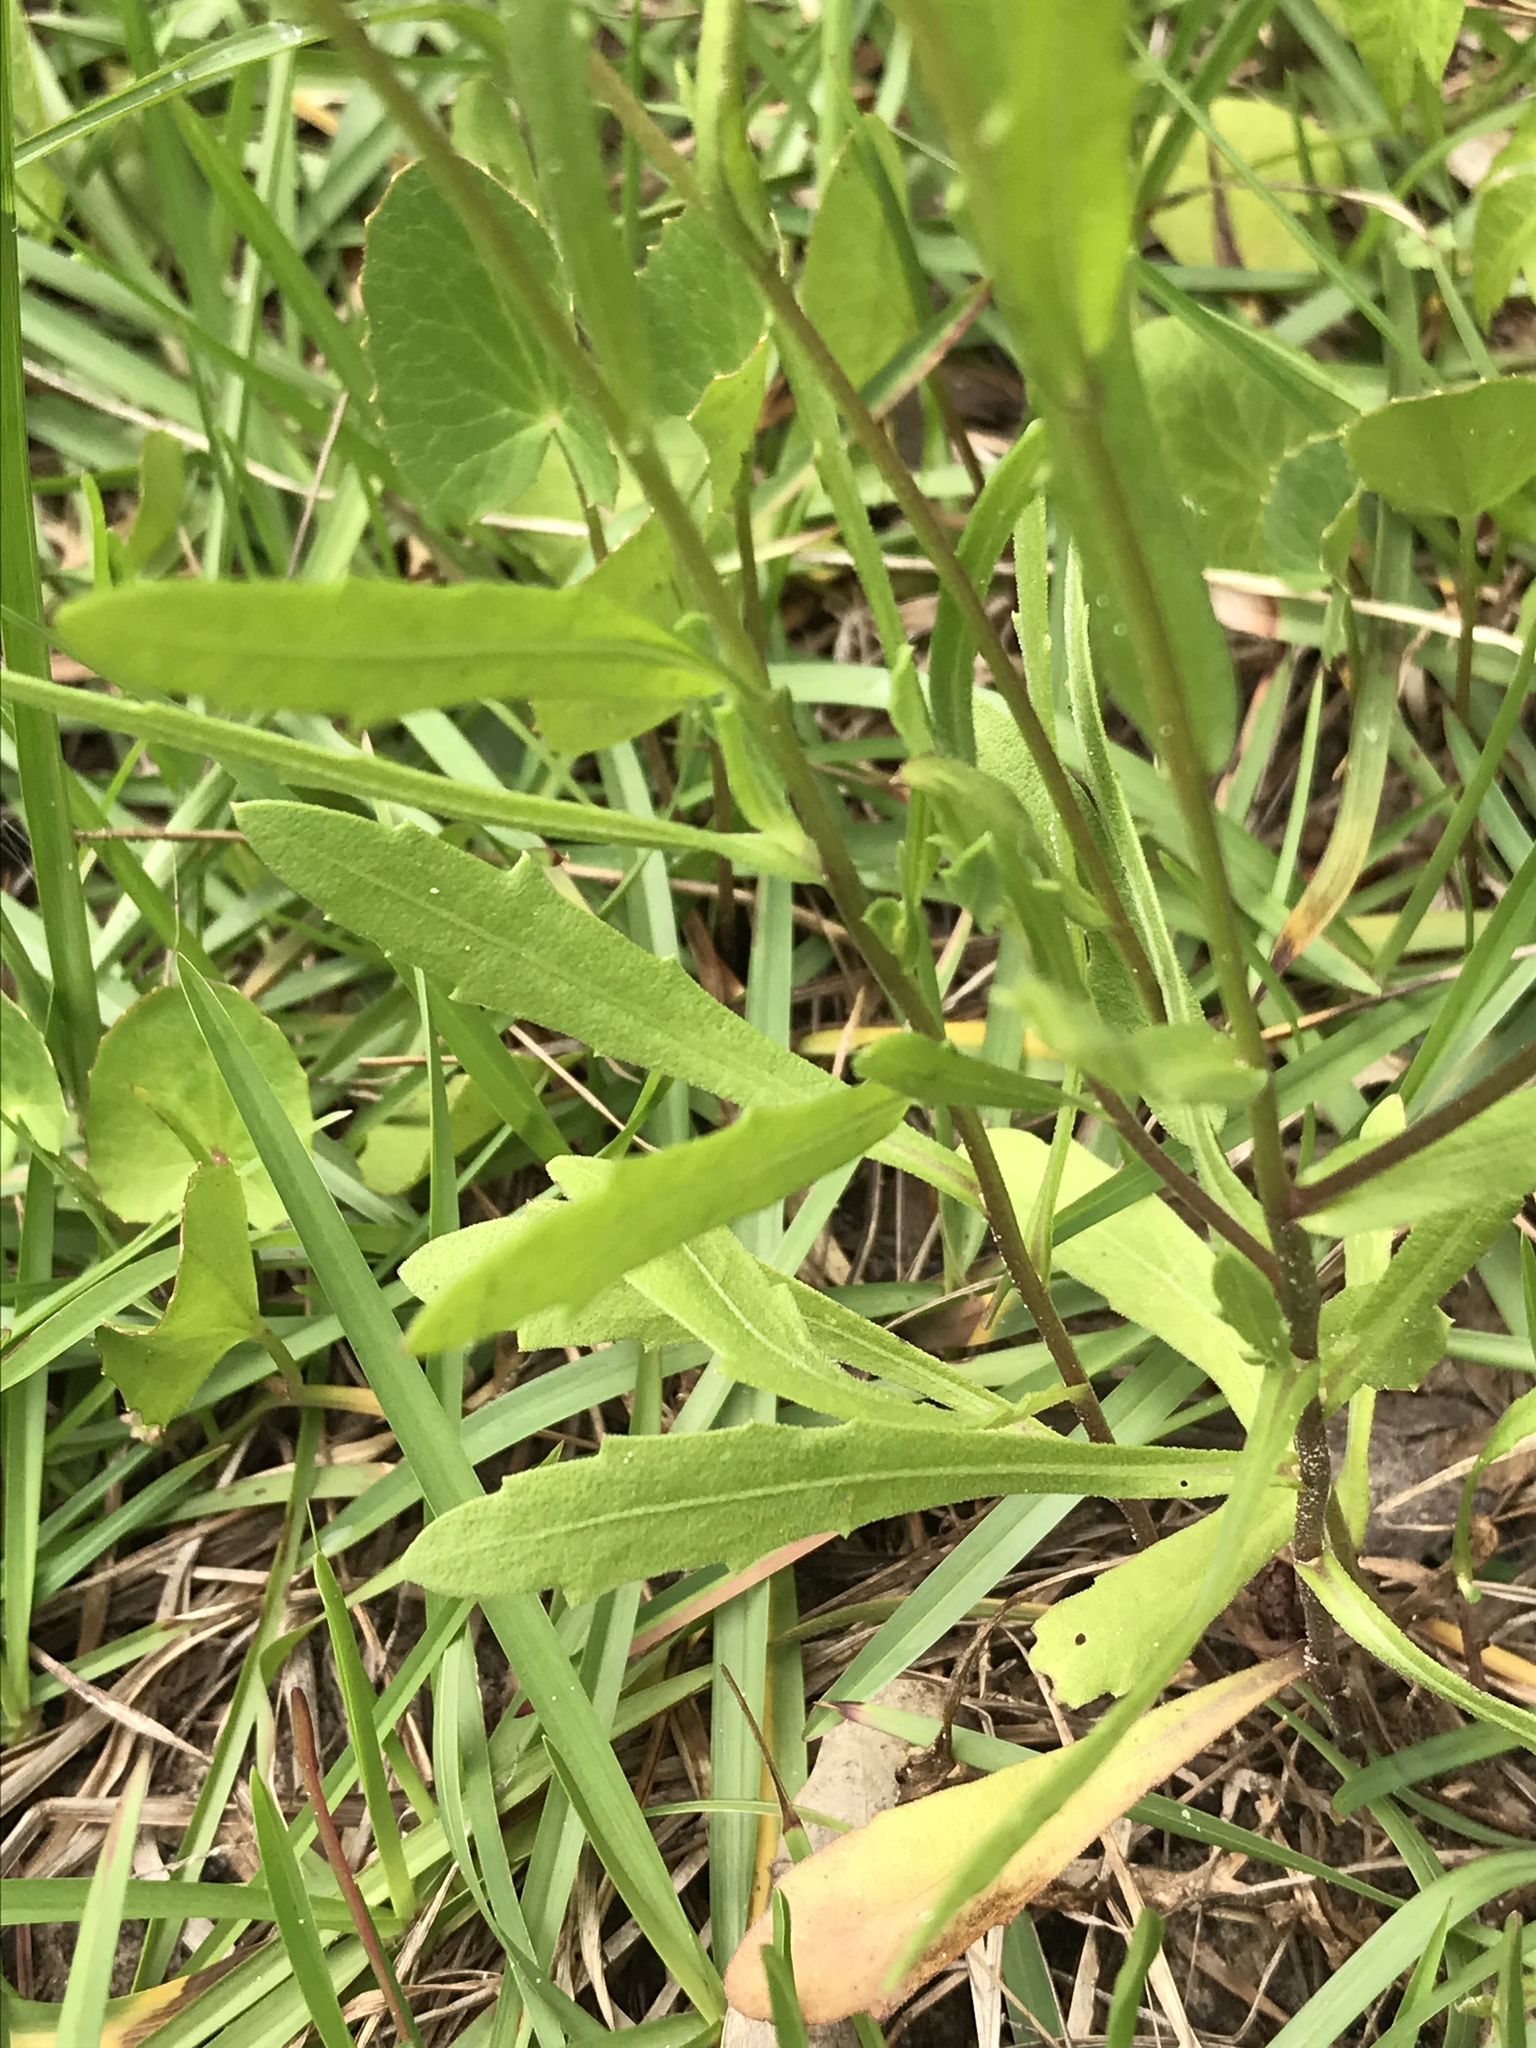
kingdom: Plantae
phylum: Tracheophyta
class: Magnoliopsida
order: Asterales
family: Asteraceae
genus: Gaillardia
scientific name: Gaillardia aestivalis
